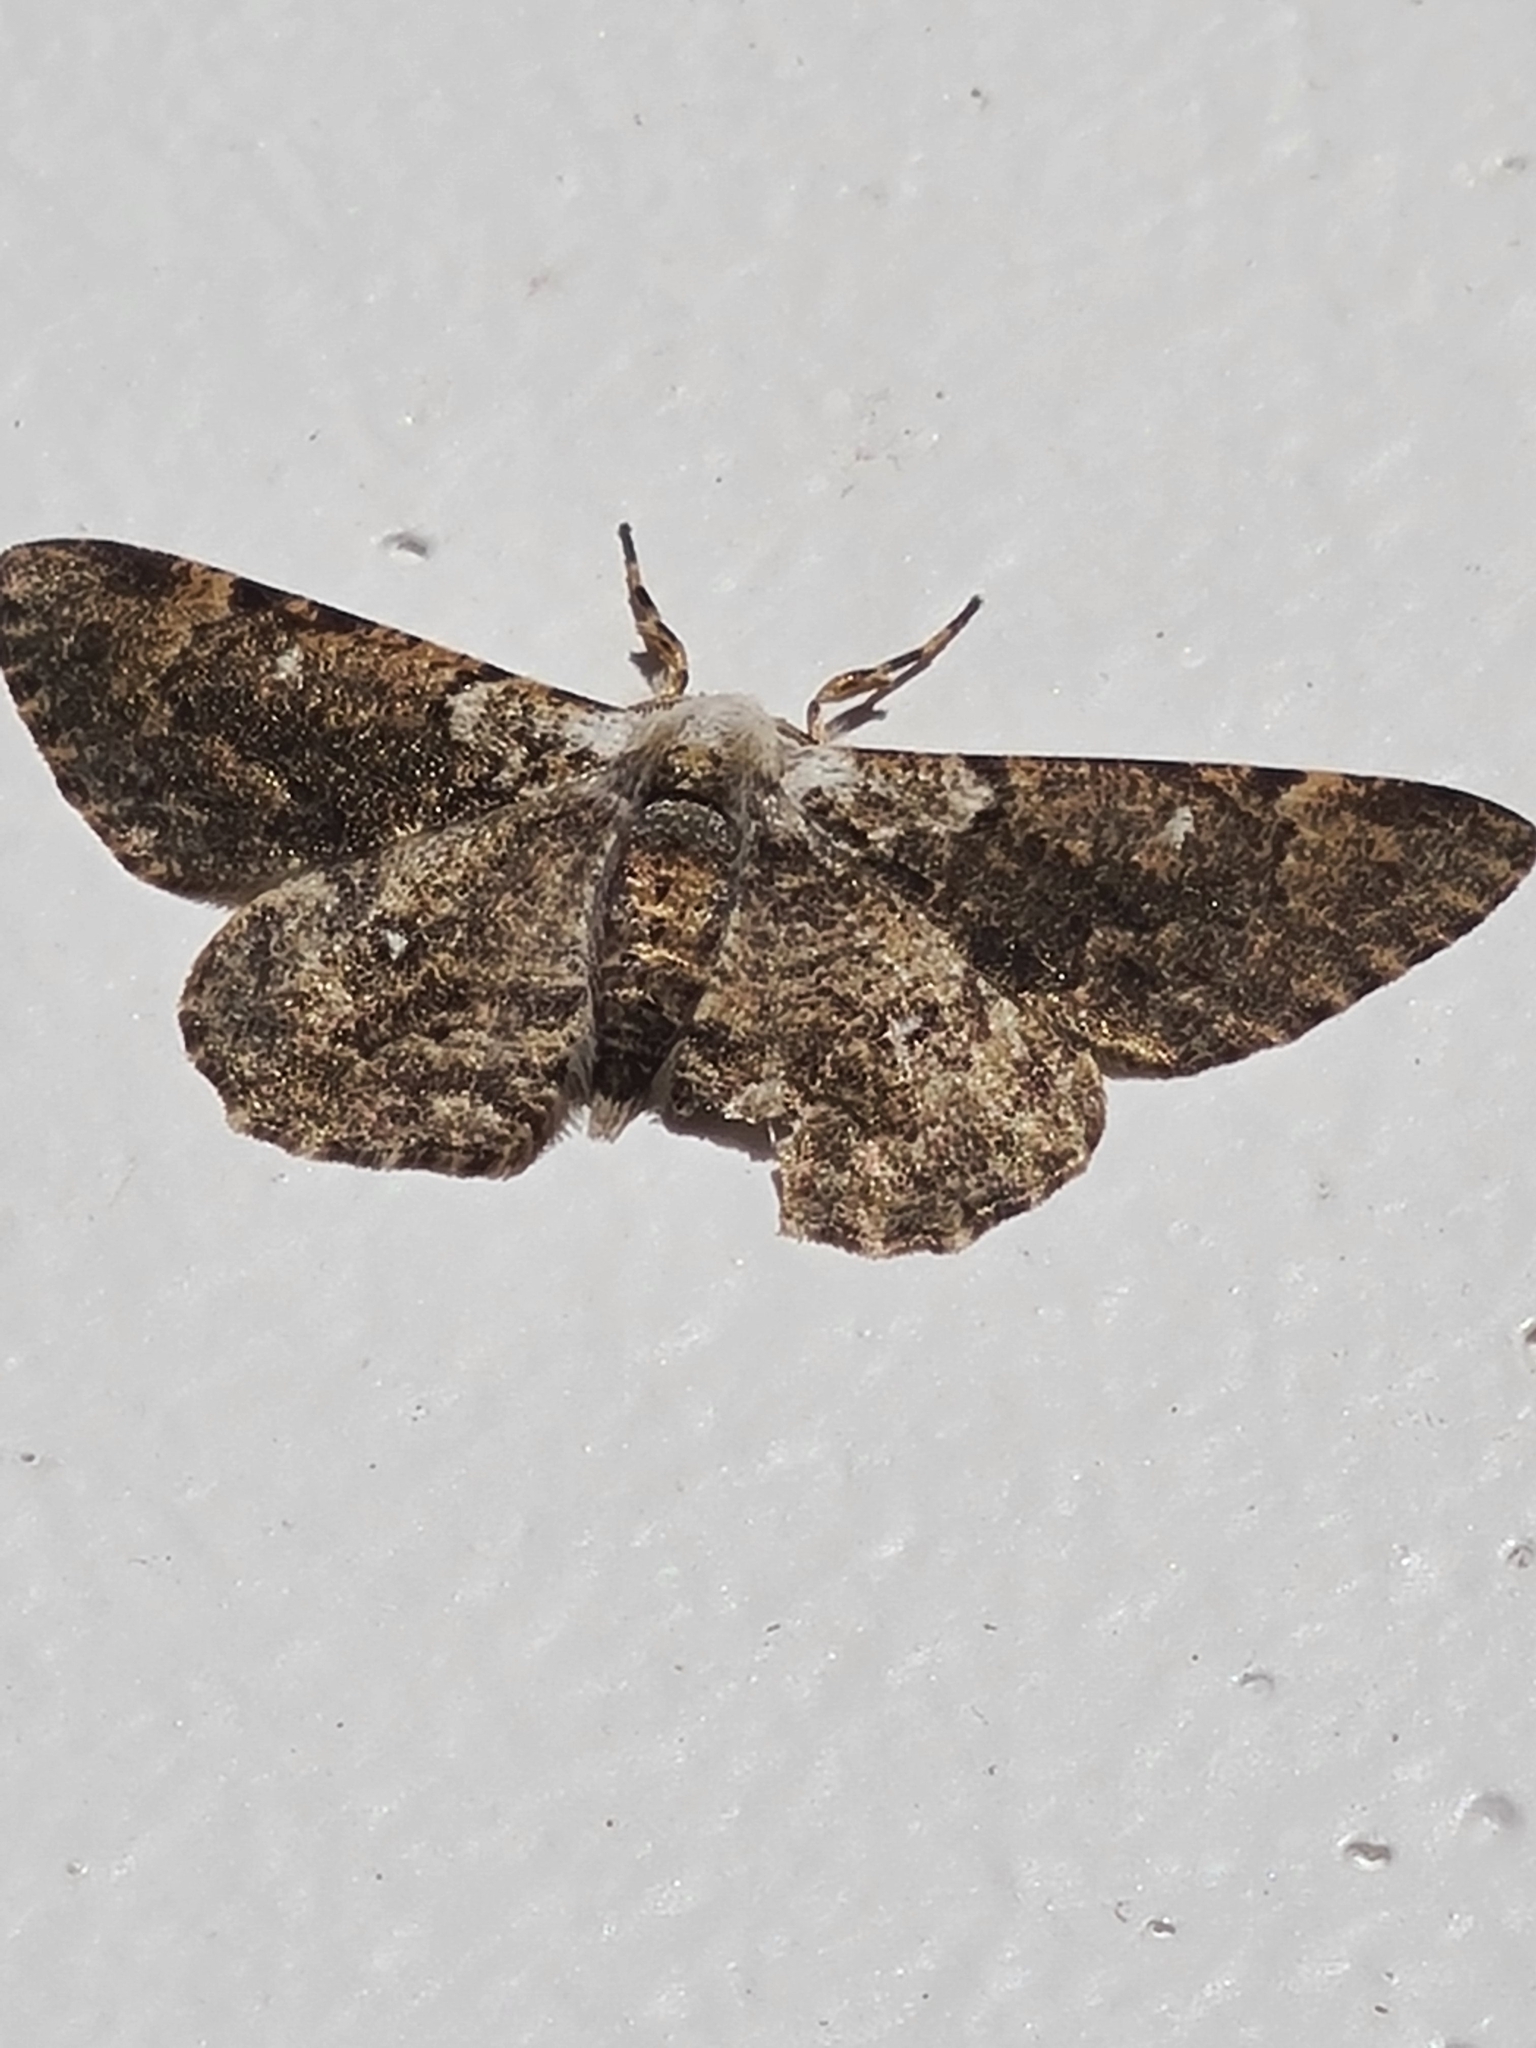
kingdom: Animalia
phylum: Arthropoda
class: Insecta
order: Lepidoptera
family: Geometridae
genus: Thyrinteina
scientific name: Thyrinteina arnobia
